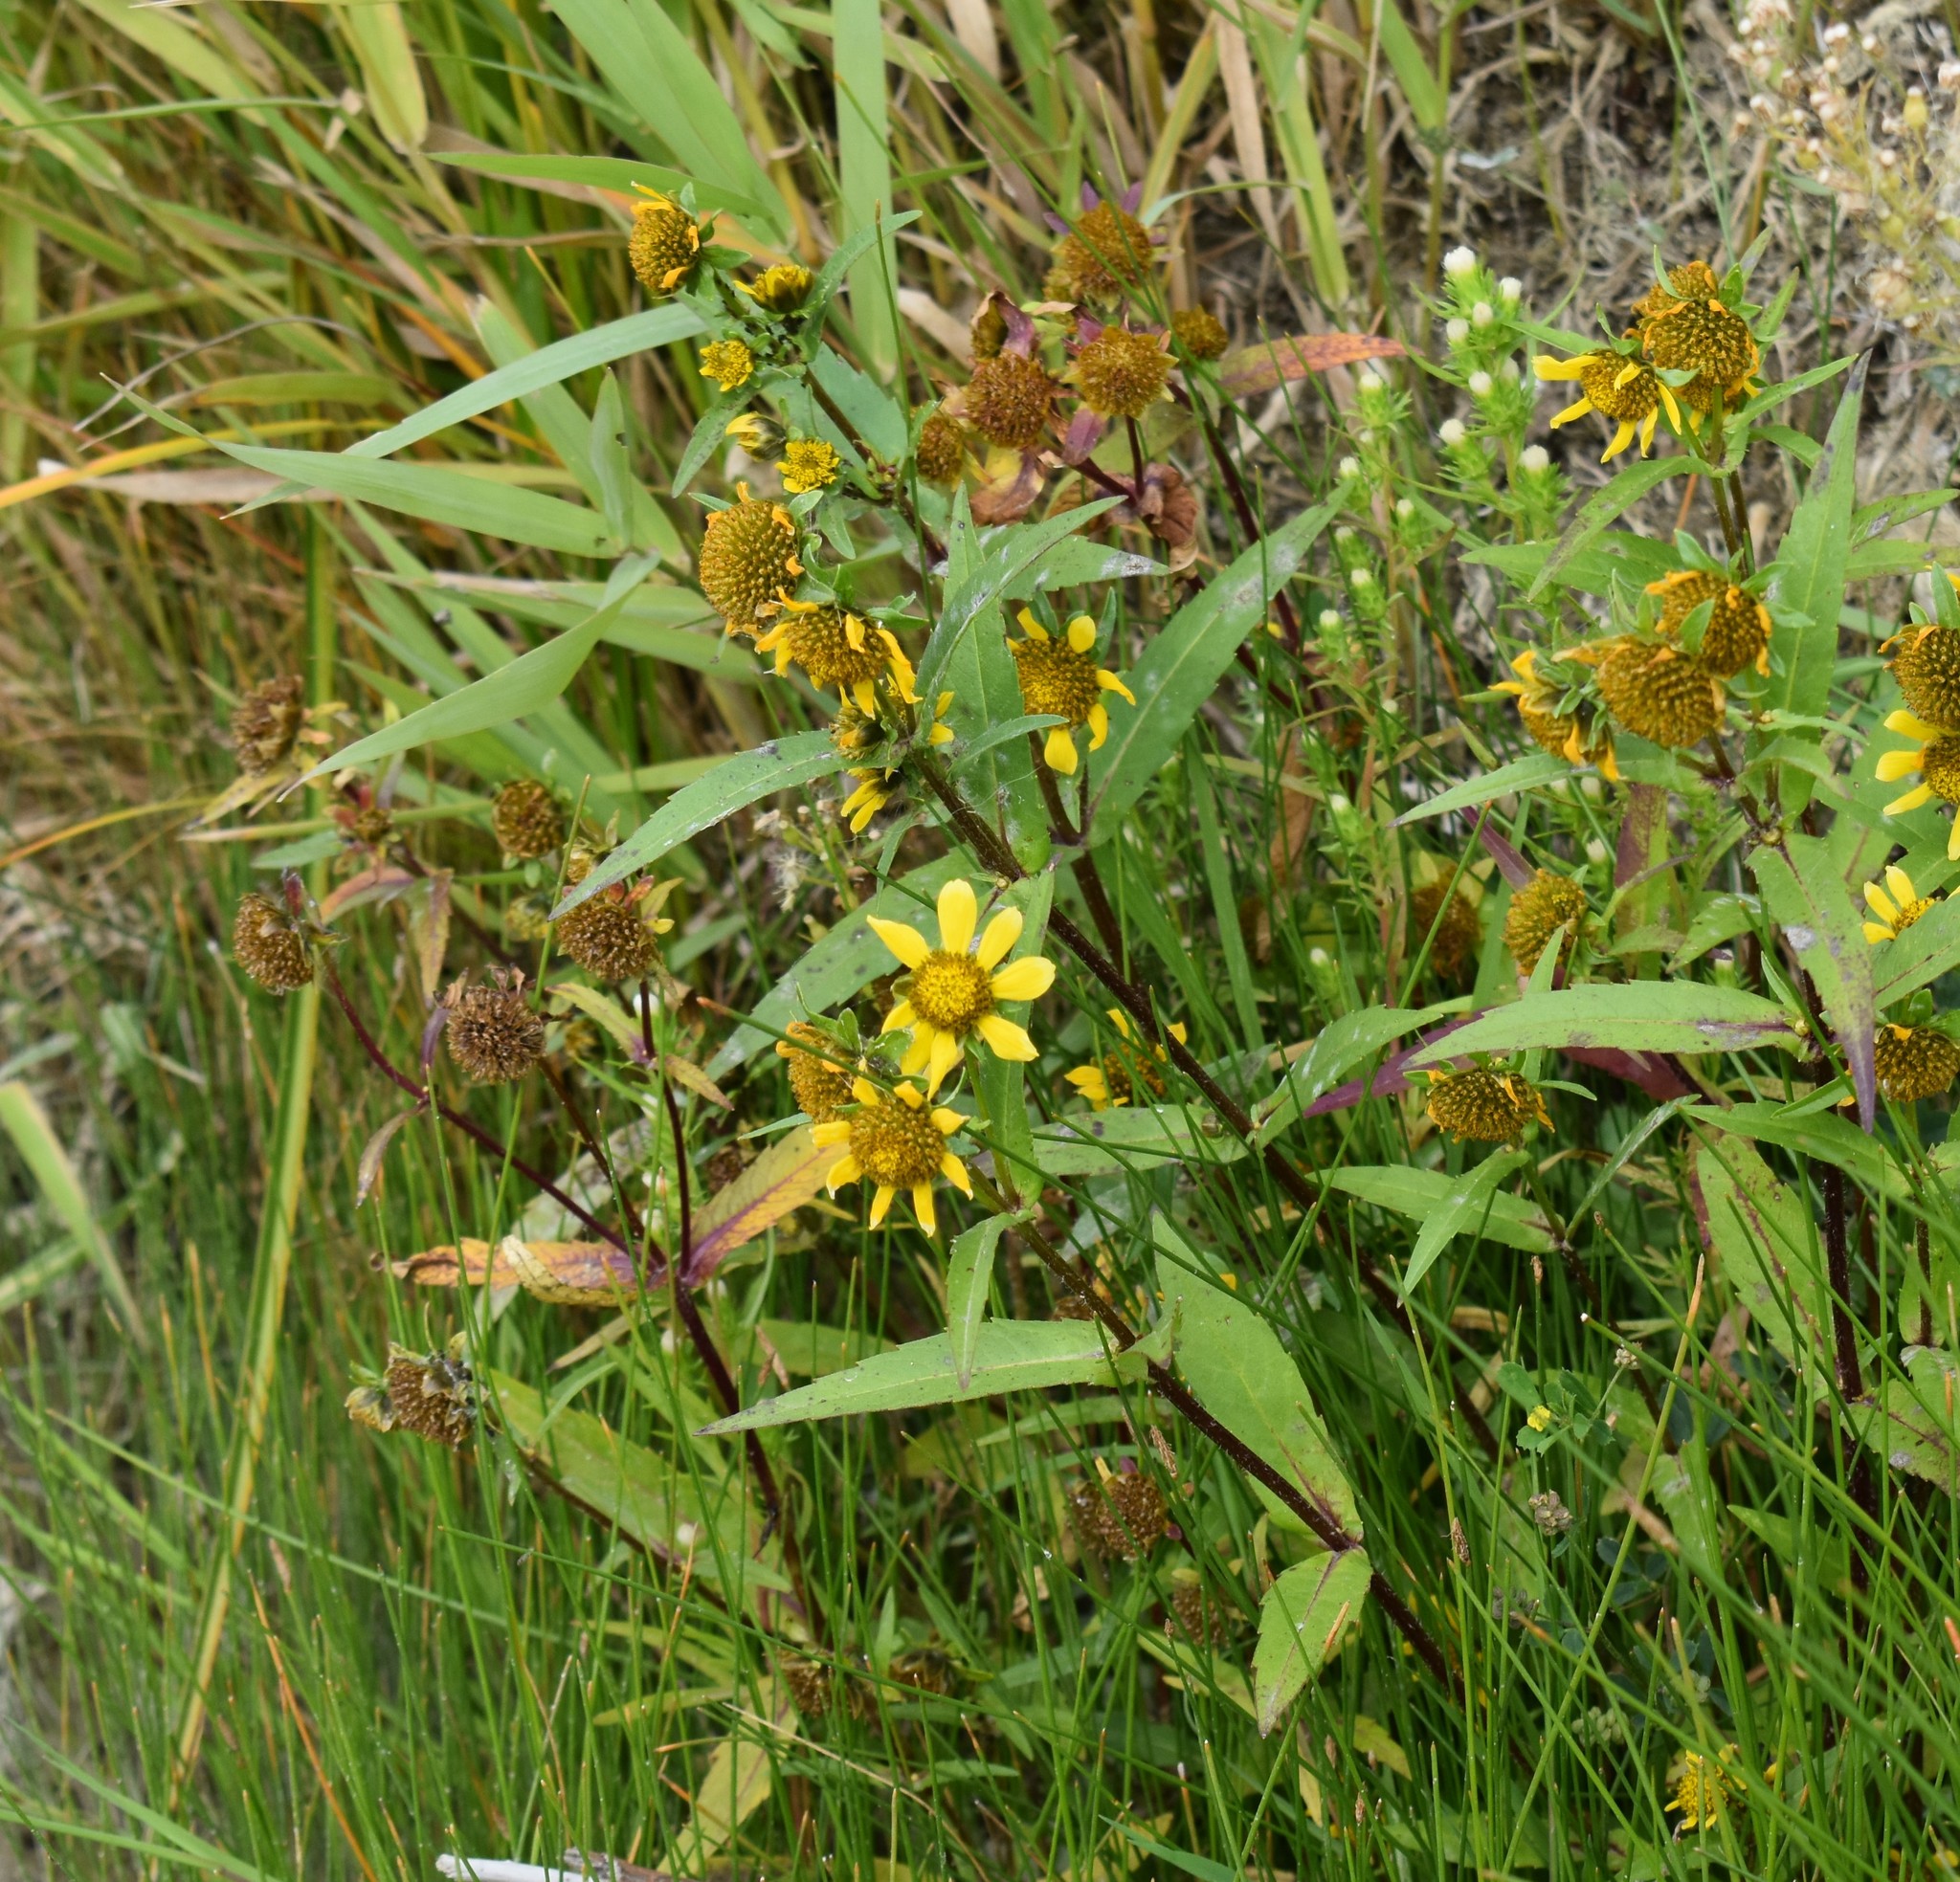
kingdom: Plantae
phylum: Tracheophyta
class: Magnoliopsida
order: Asterales
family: Asteraceae
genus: Bidens
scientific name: Bidens cernua
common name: Nodding bur-marigold
